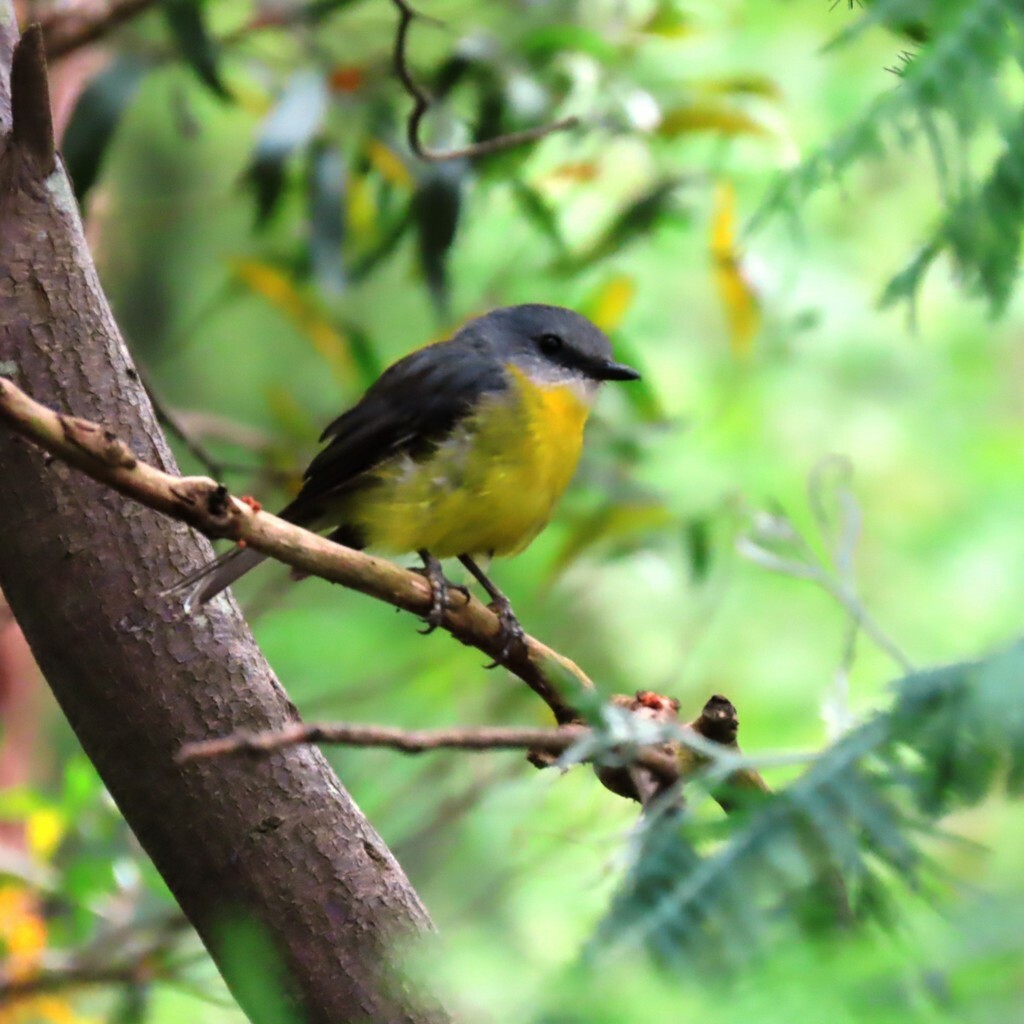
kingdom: Animalia
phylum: Chordata
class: Aves
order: Passeriformes
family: Petroicidae
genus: Eopsaltria
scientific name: Eopsaltria australis
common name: Eastern yellow robin
